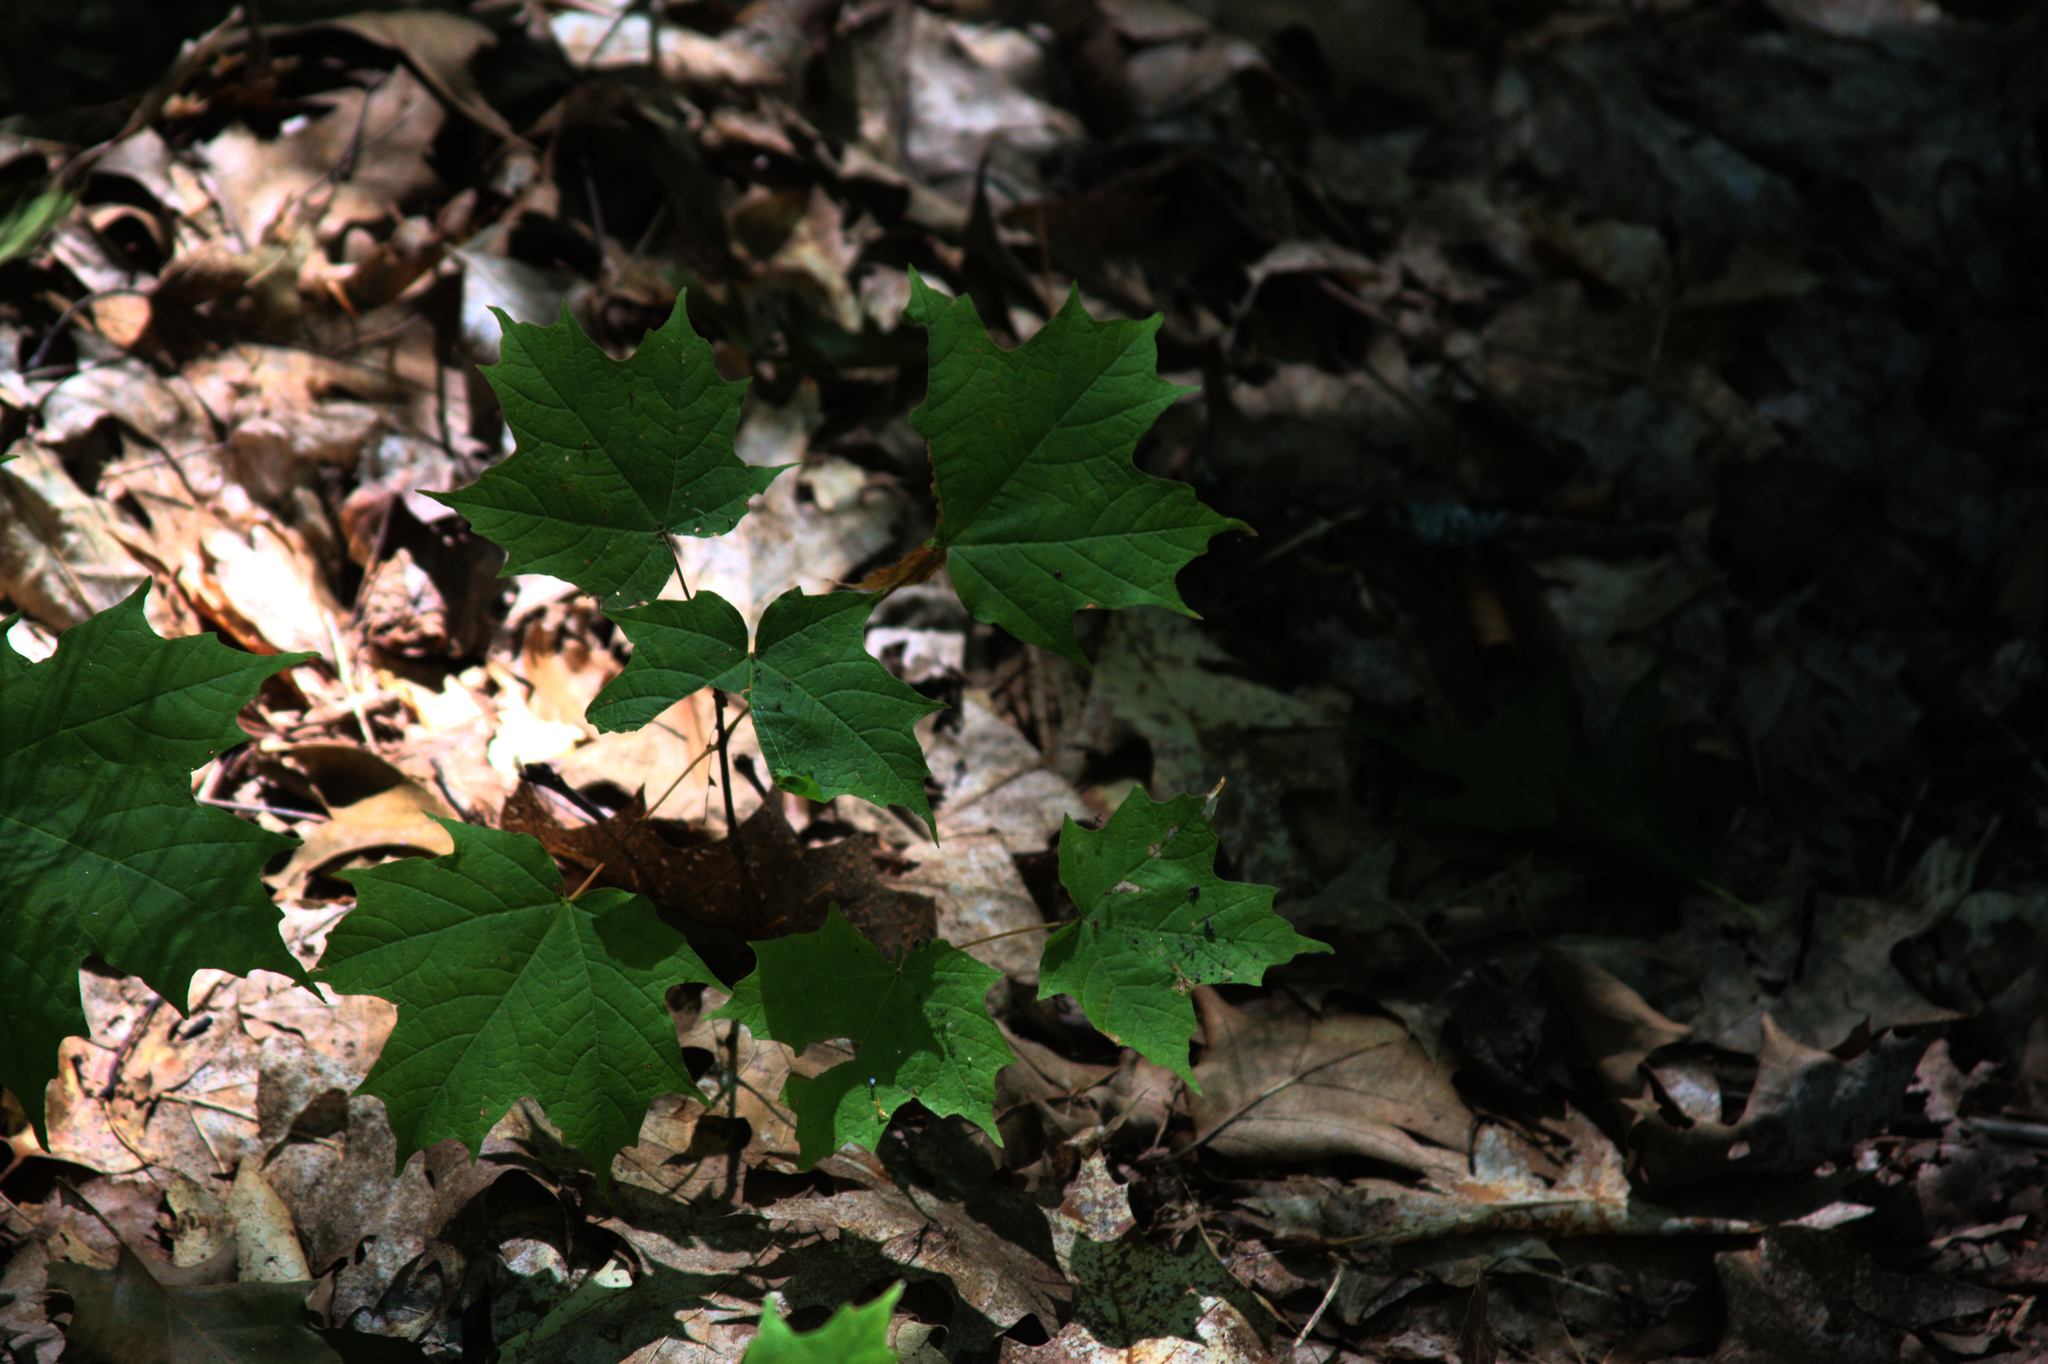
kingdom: Plantae
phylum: Tracheophyta
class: Magnoliopsida
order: Sapindales
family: Sapindaceae
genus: Acer
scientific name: Acer saccharum
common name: Sugar maple
